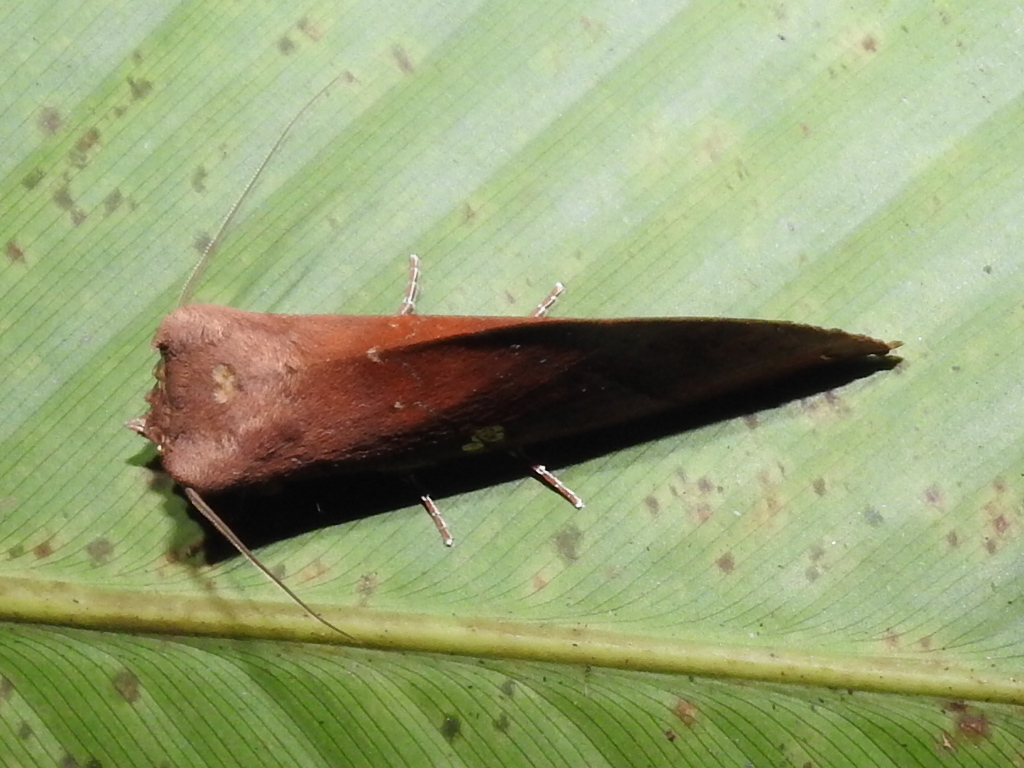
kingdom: Animalia
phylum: Arthropoda
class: Insecta
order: Lepidoptera
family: Notodontidae
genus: Hapigia
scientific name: Hapigia simplex
